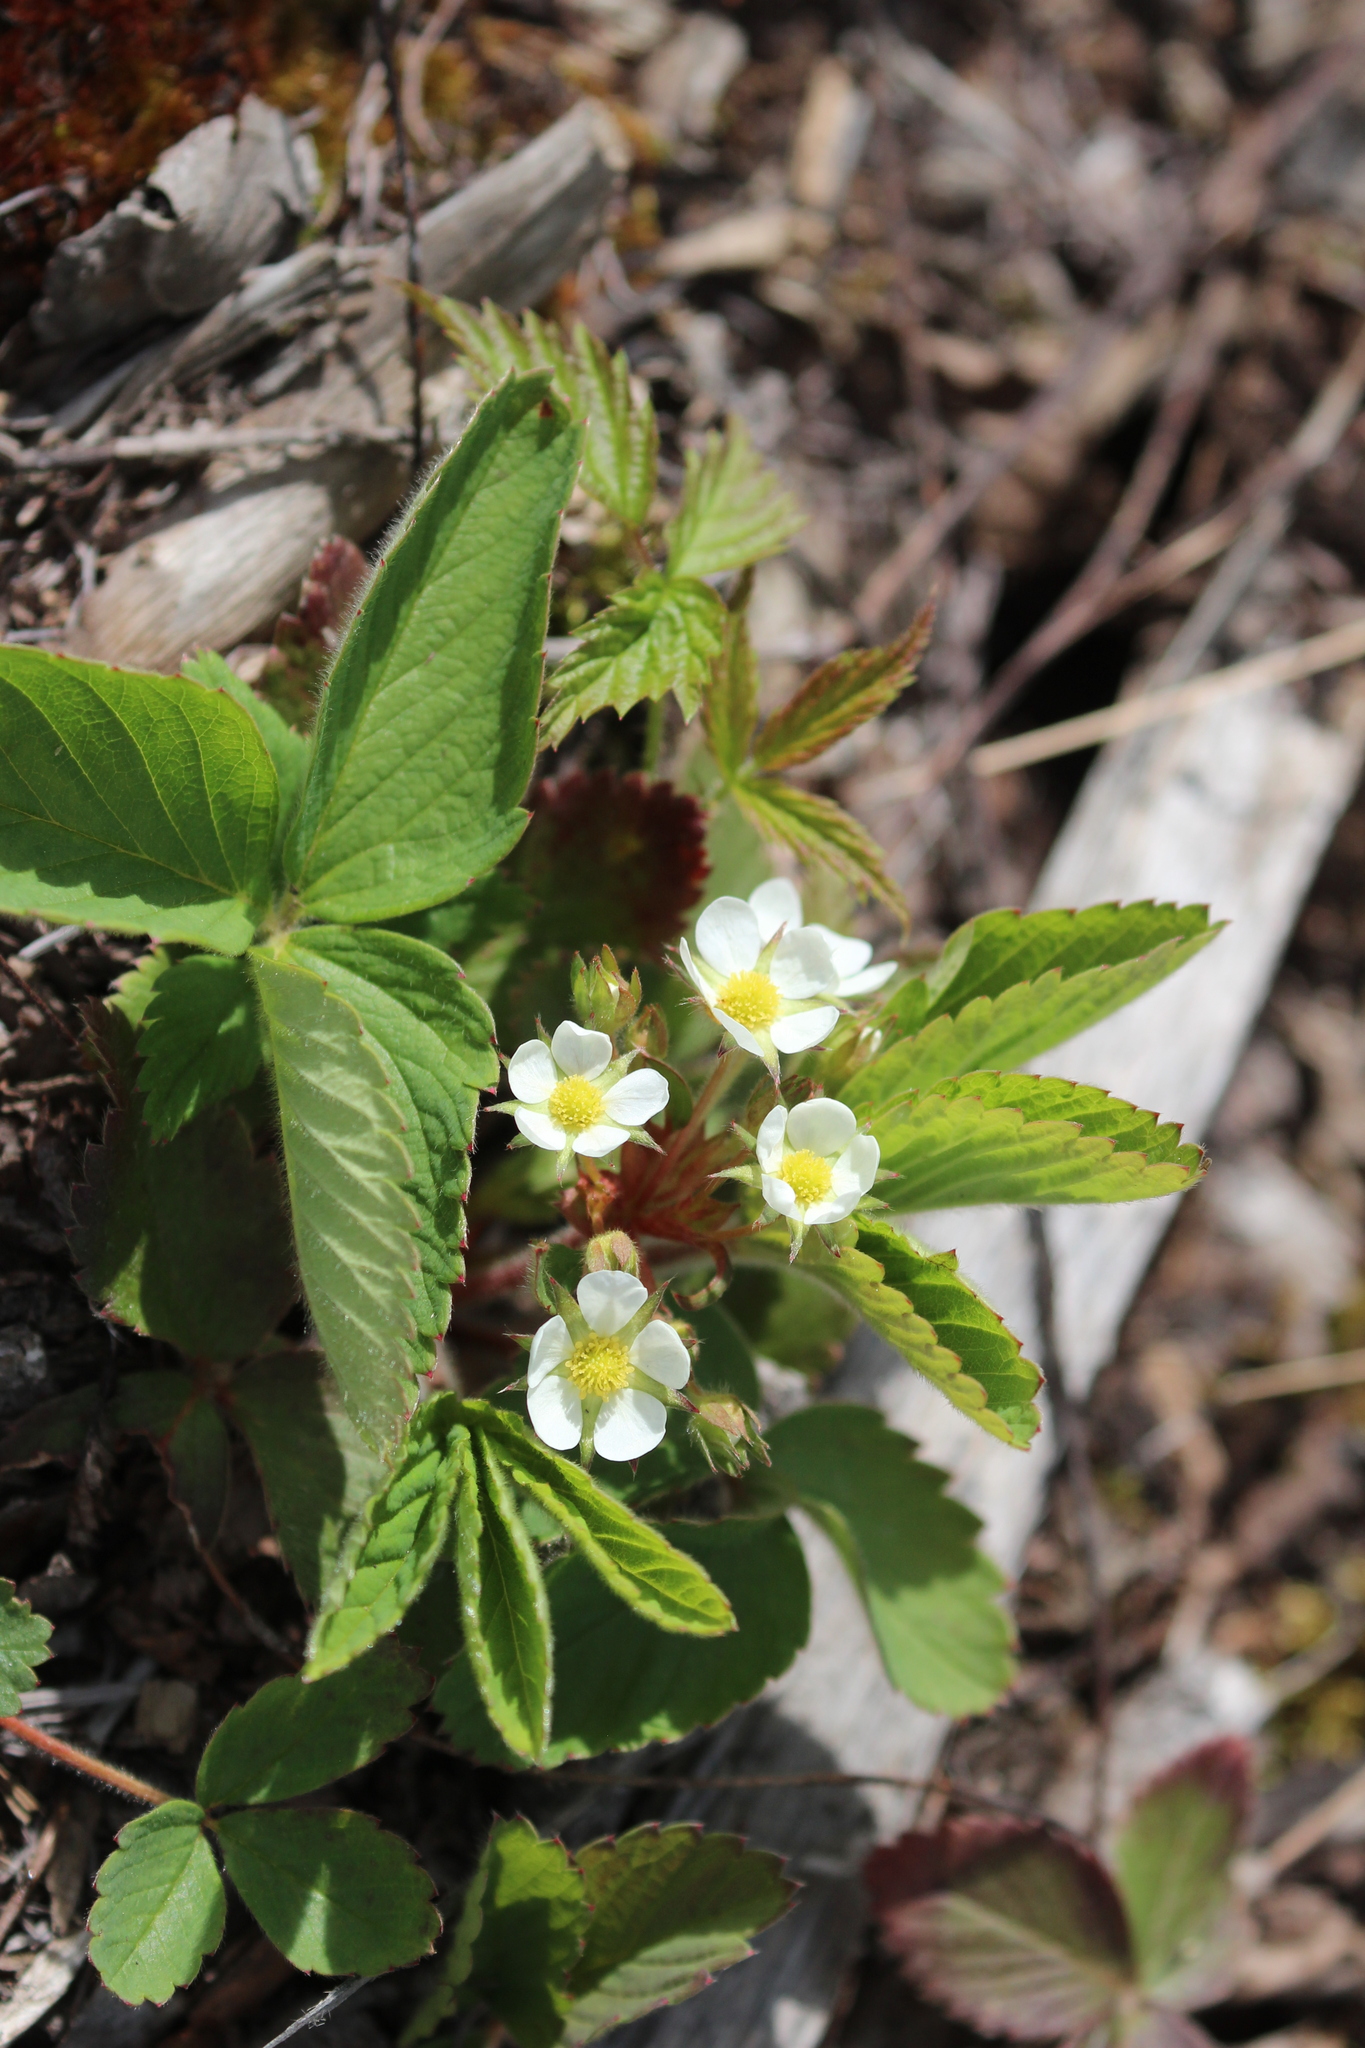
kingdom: Plantae
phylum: Tracheophyta
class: Magnoliopsida
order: Rosales
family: Rosaceae
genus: Fragaria
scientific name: Fragaria virginiana
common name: Thickleaved wild strawberry
